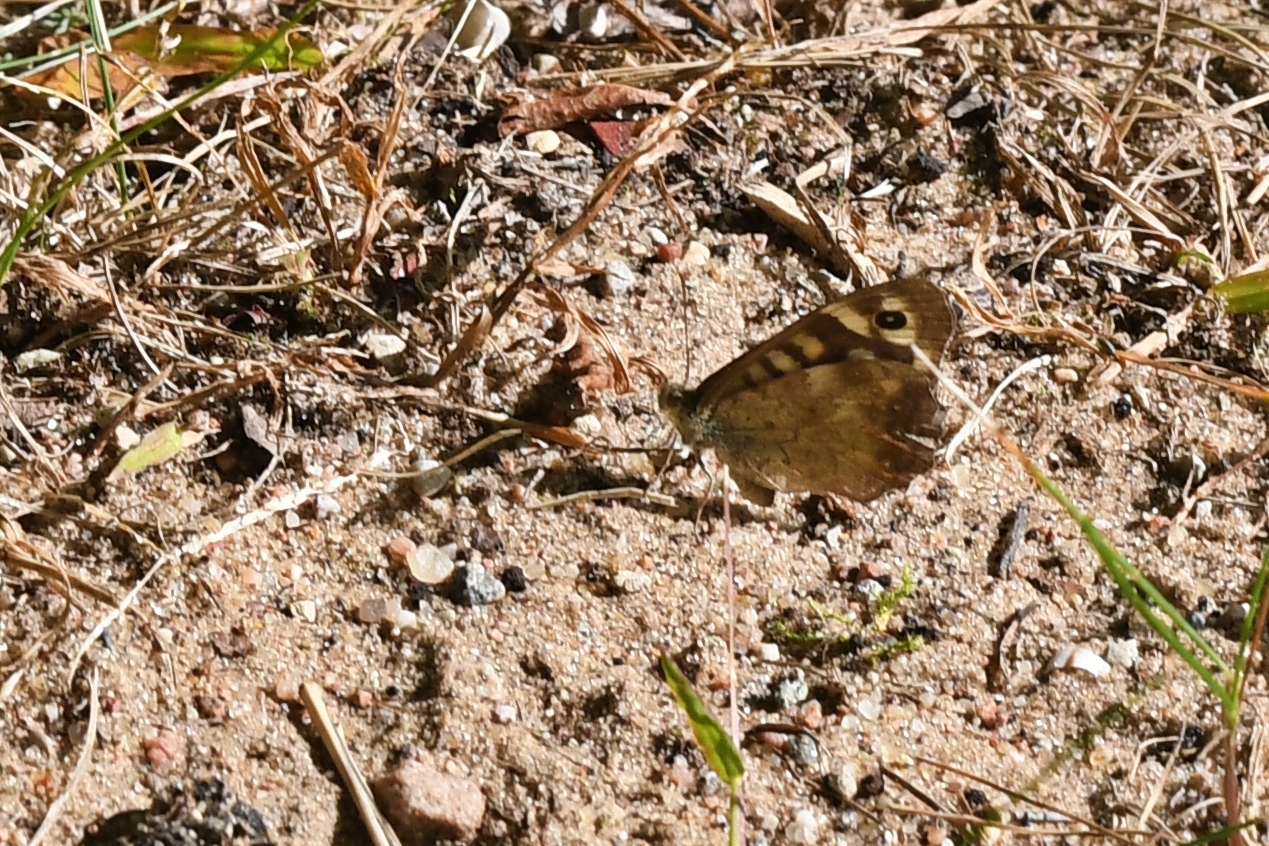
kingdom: Animalia
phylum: Arthropoda
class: Insecta
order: Lepidoptera
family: Nymphalidae
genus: Pararge
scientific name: Pararge aegeria
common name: Speckled wood
